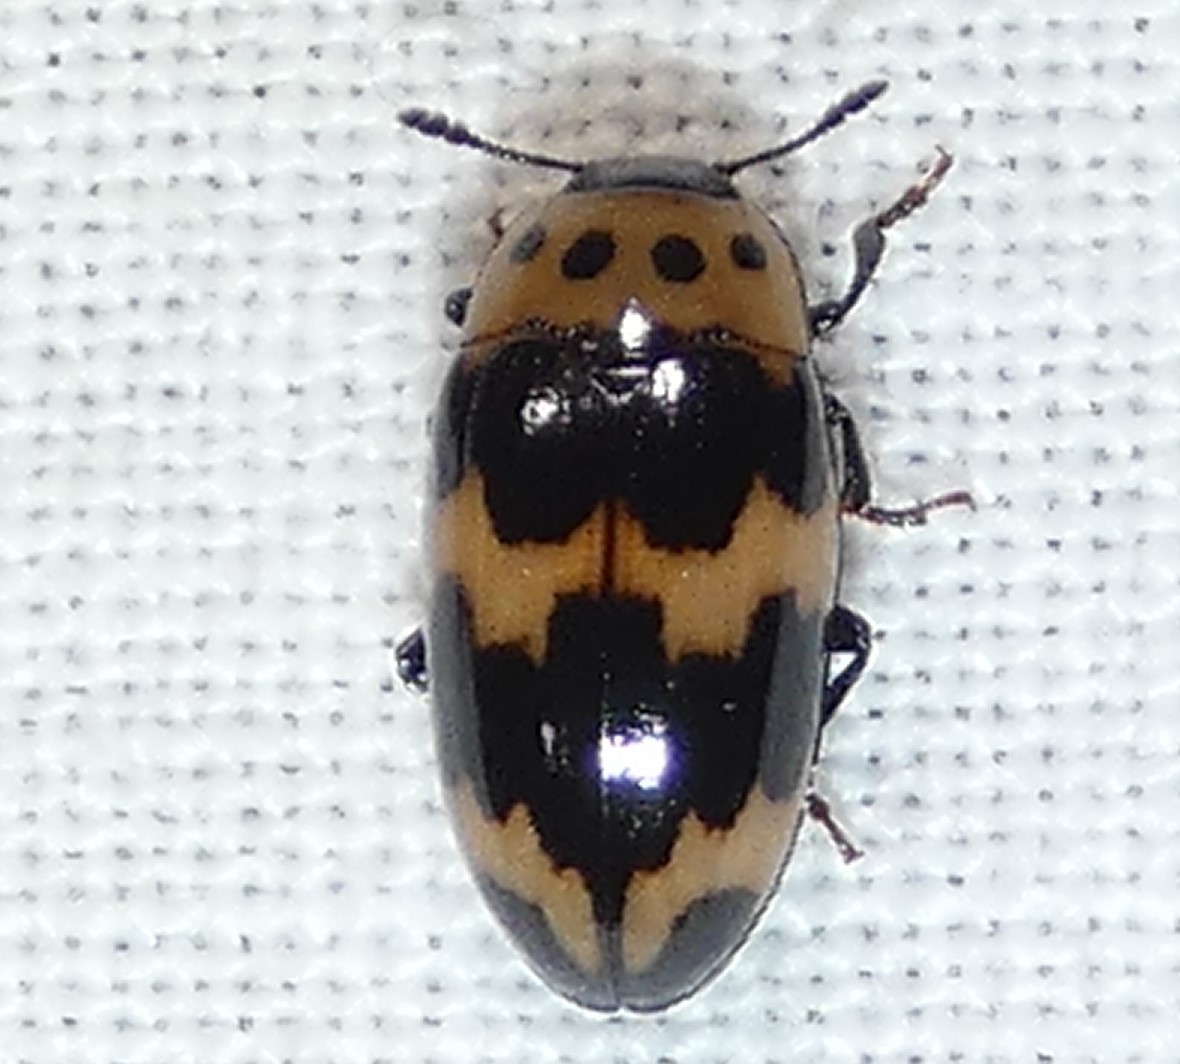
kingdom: Animalia
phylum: Arthropoda
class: Insecta
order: Coleoptera
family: Erotylidae
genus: Ischyrus
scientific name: Ischyrus quadripunctatus
